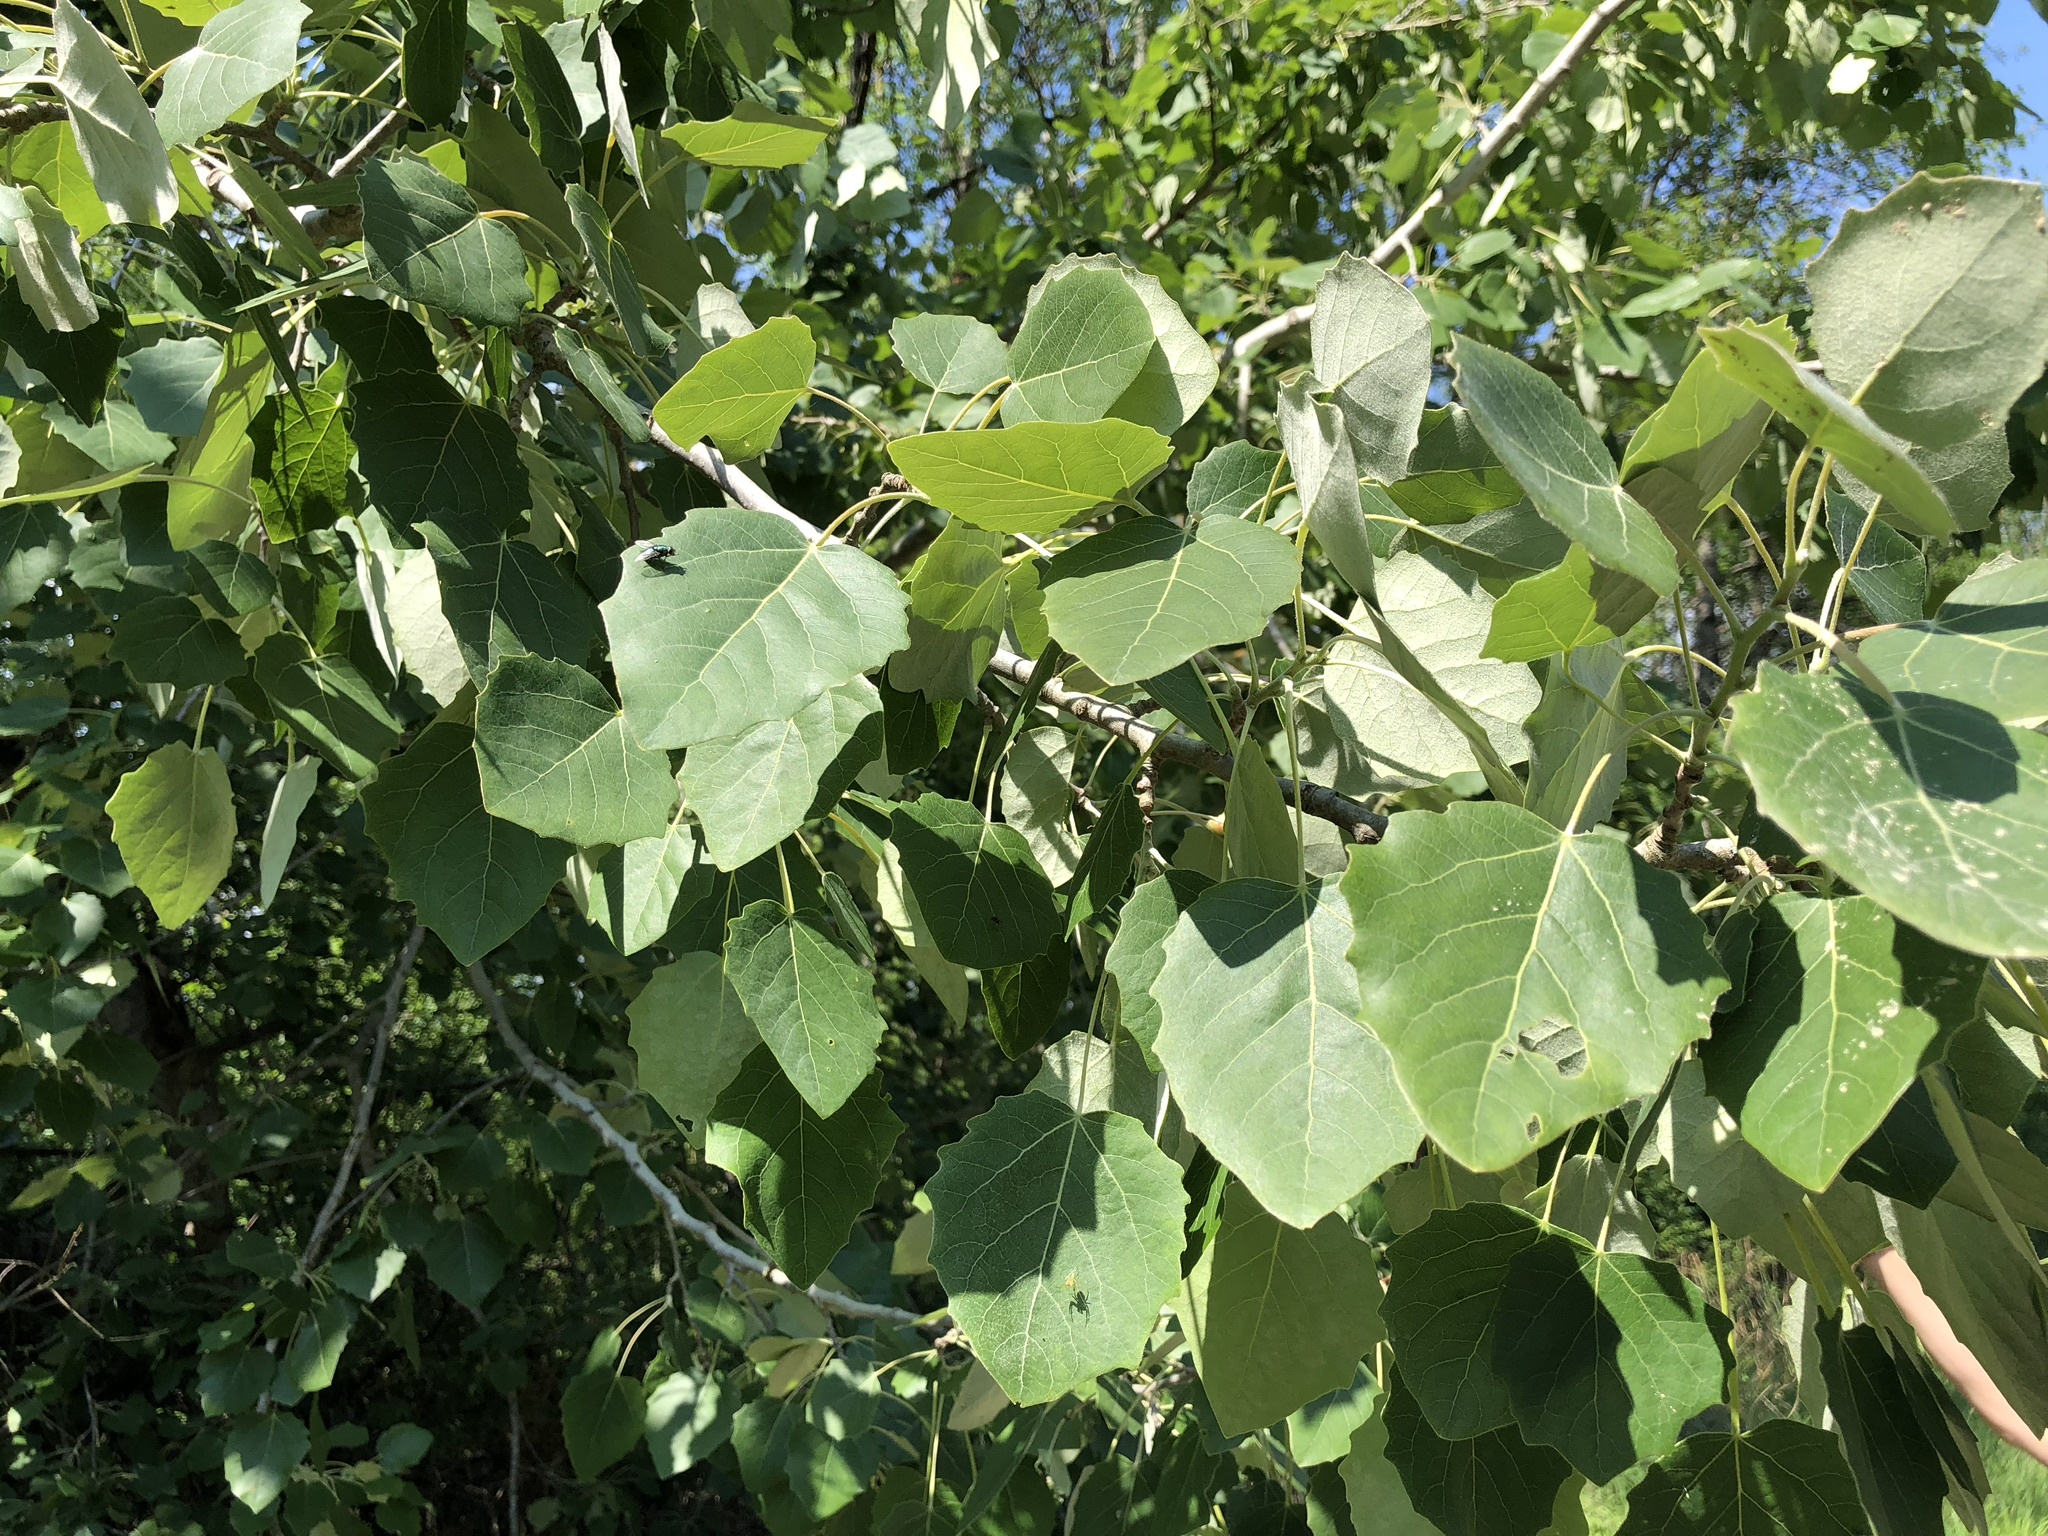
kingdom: Plantae
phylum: Tracheophyta
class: Magnoliopsida
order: Malpighiales
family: Salicaceae
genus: Populus
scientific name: Populus canescens
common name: Gray poplar
